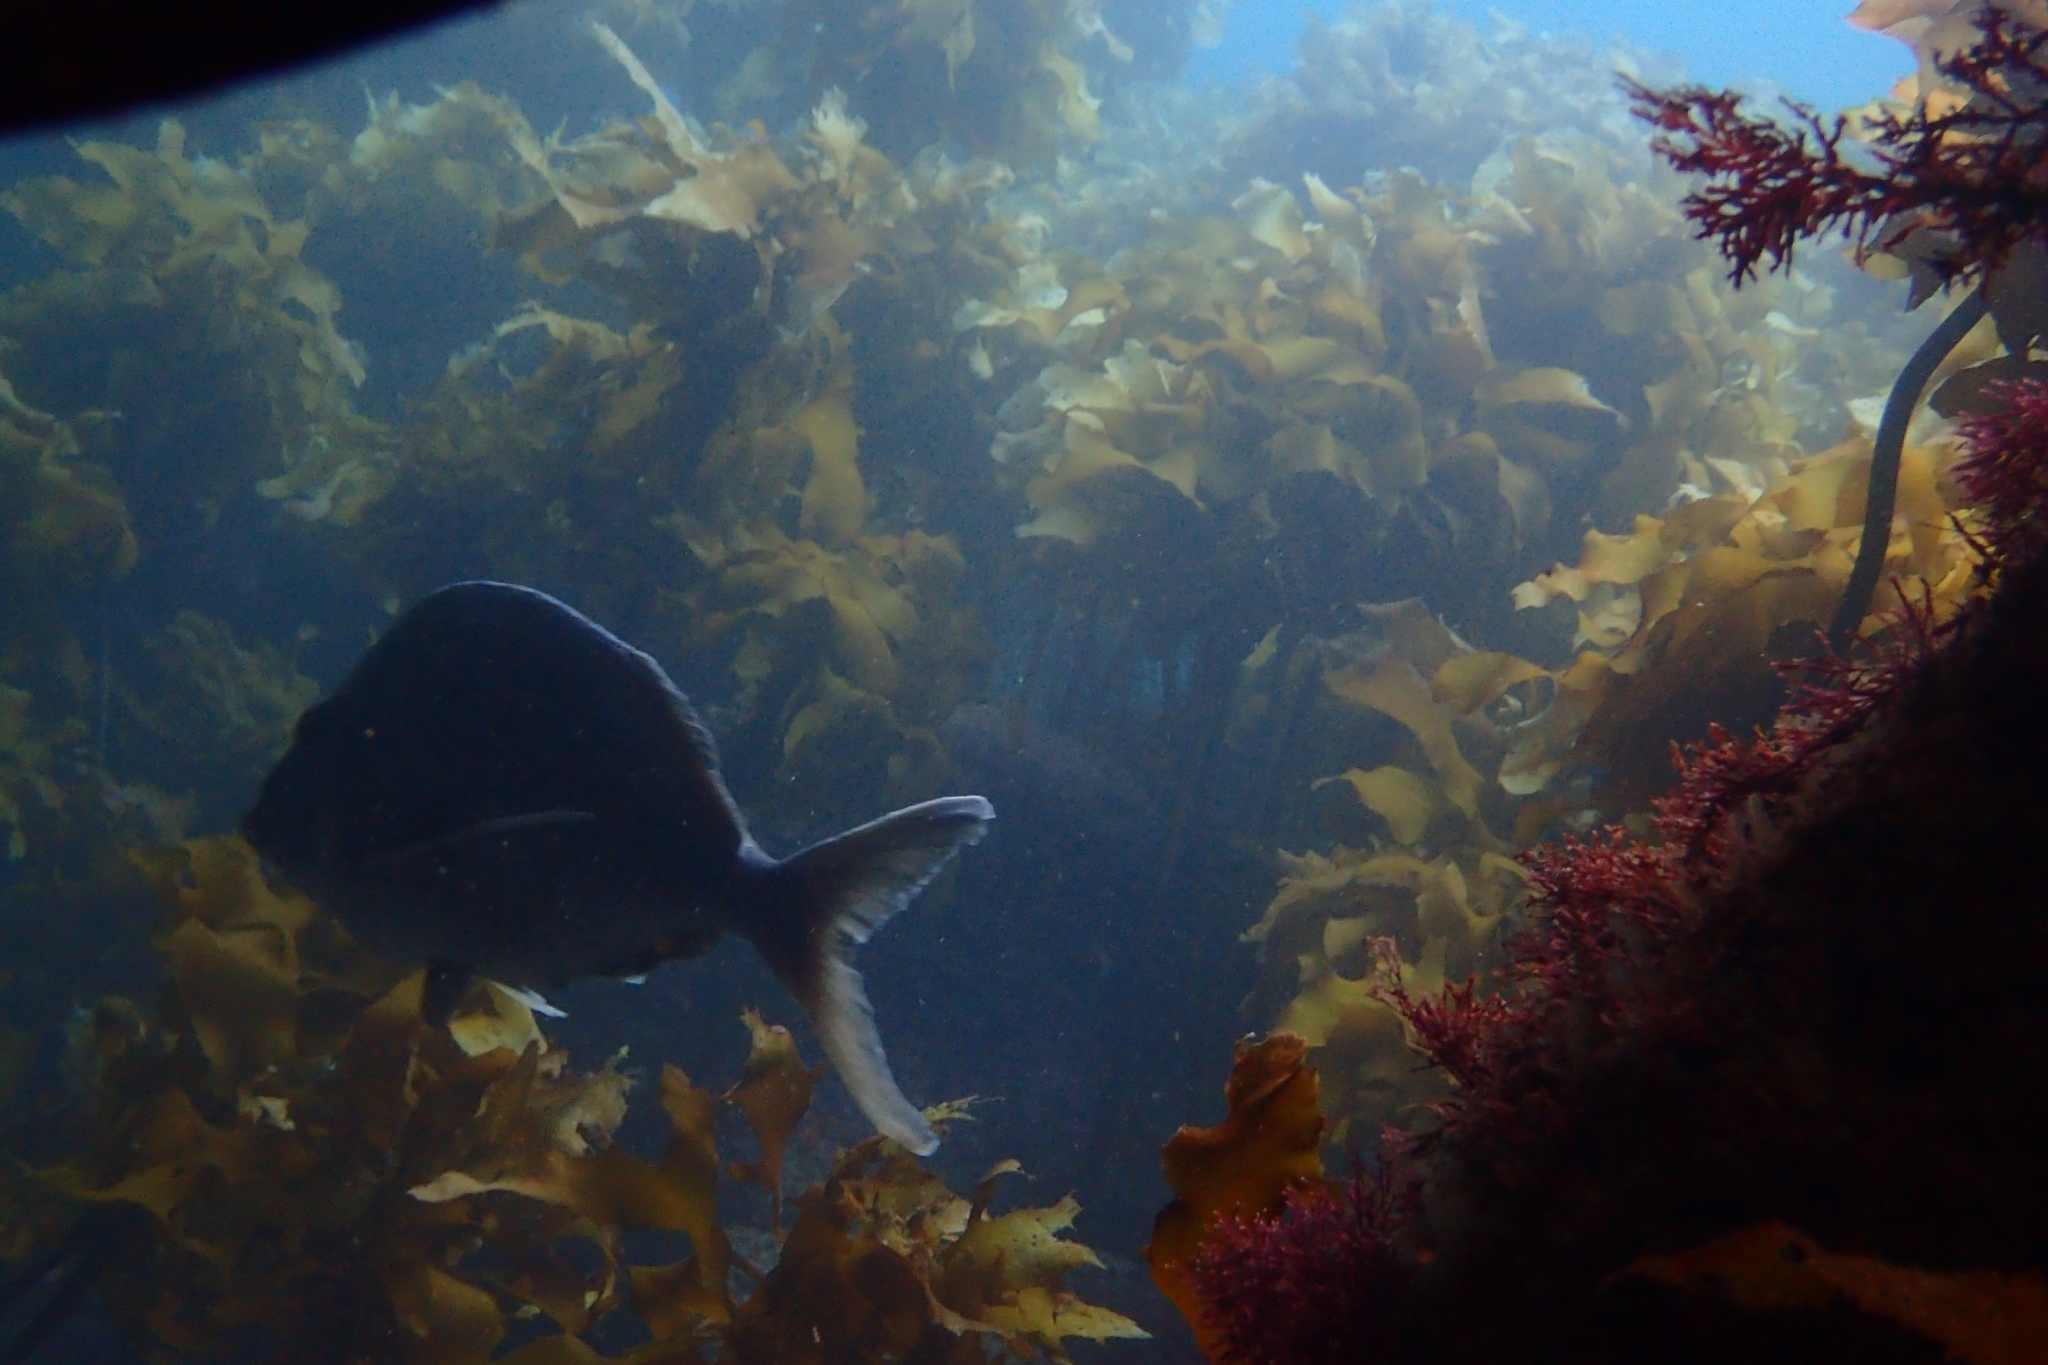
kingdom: Animalia
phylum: Chordata
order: Perciformes
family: Cheilodactylidae
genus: Nemadactylus
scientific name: Nemadactylus douglasii
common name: Porae
